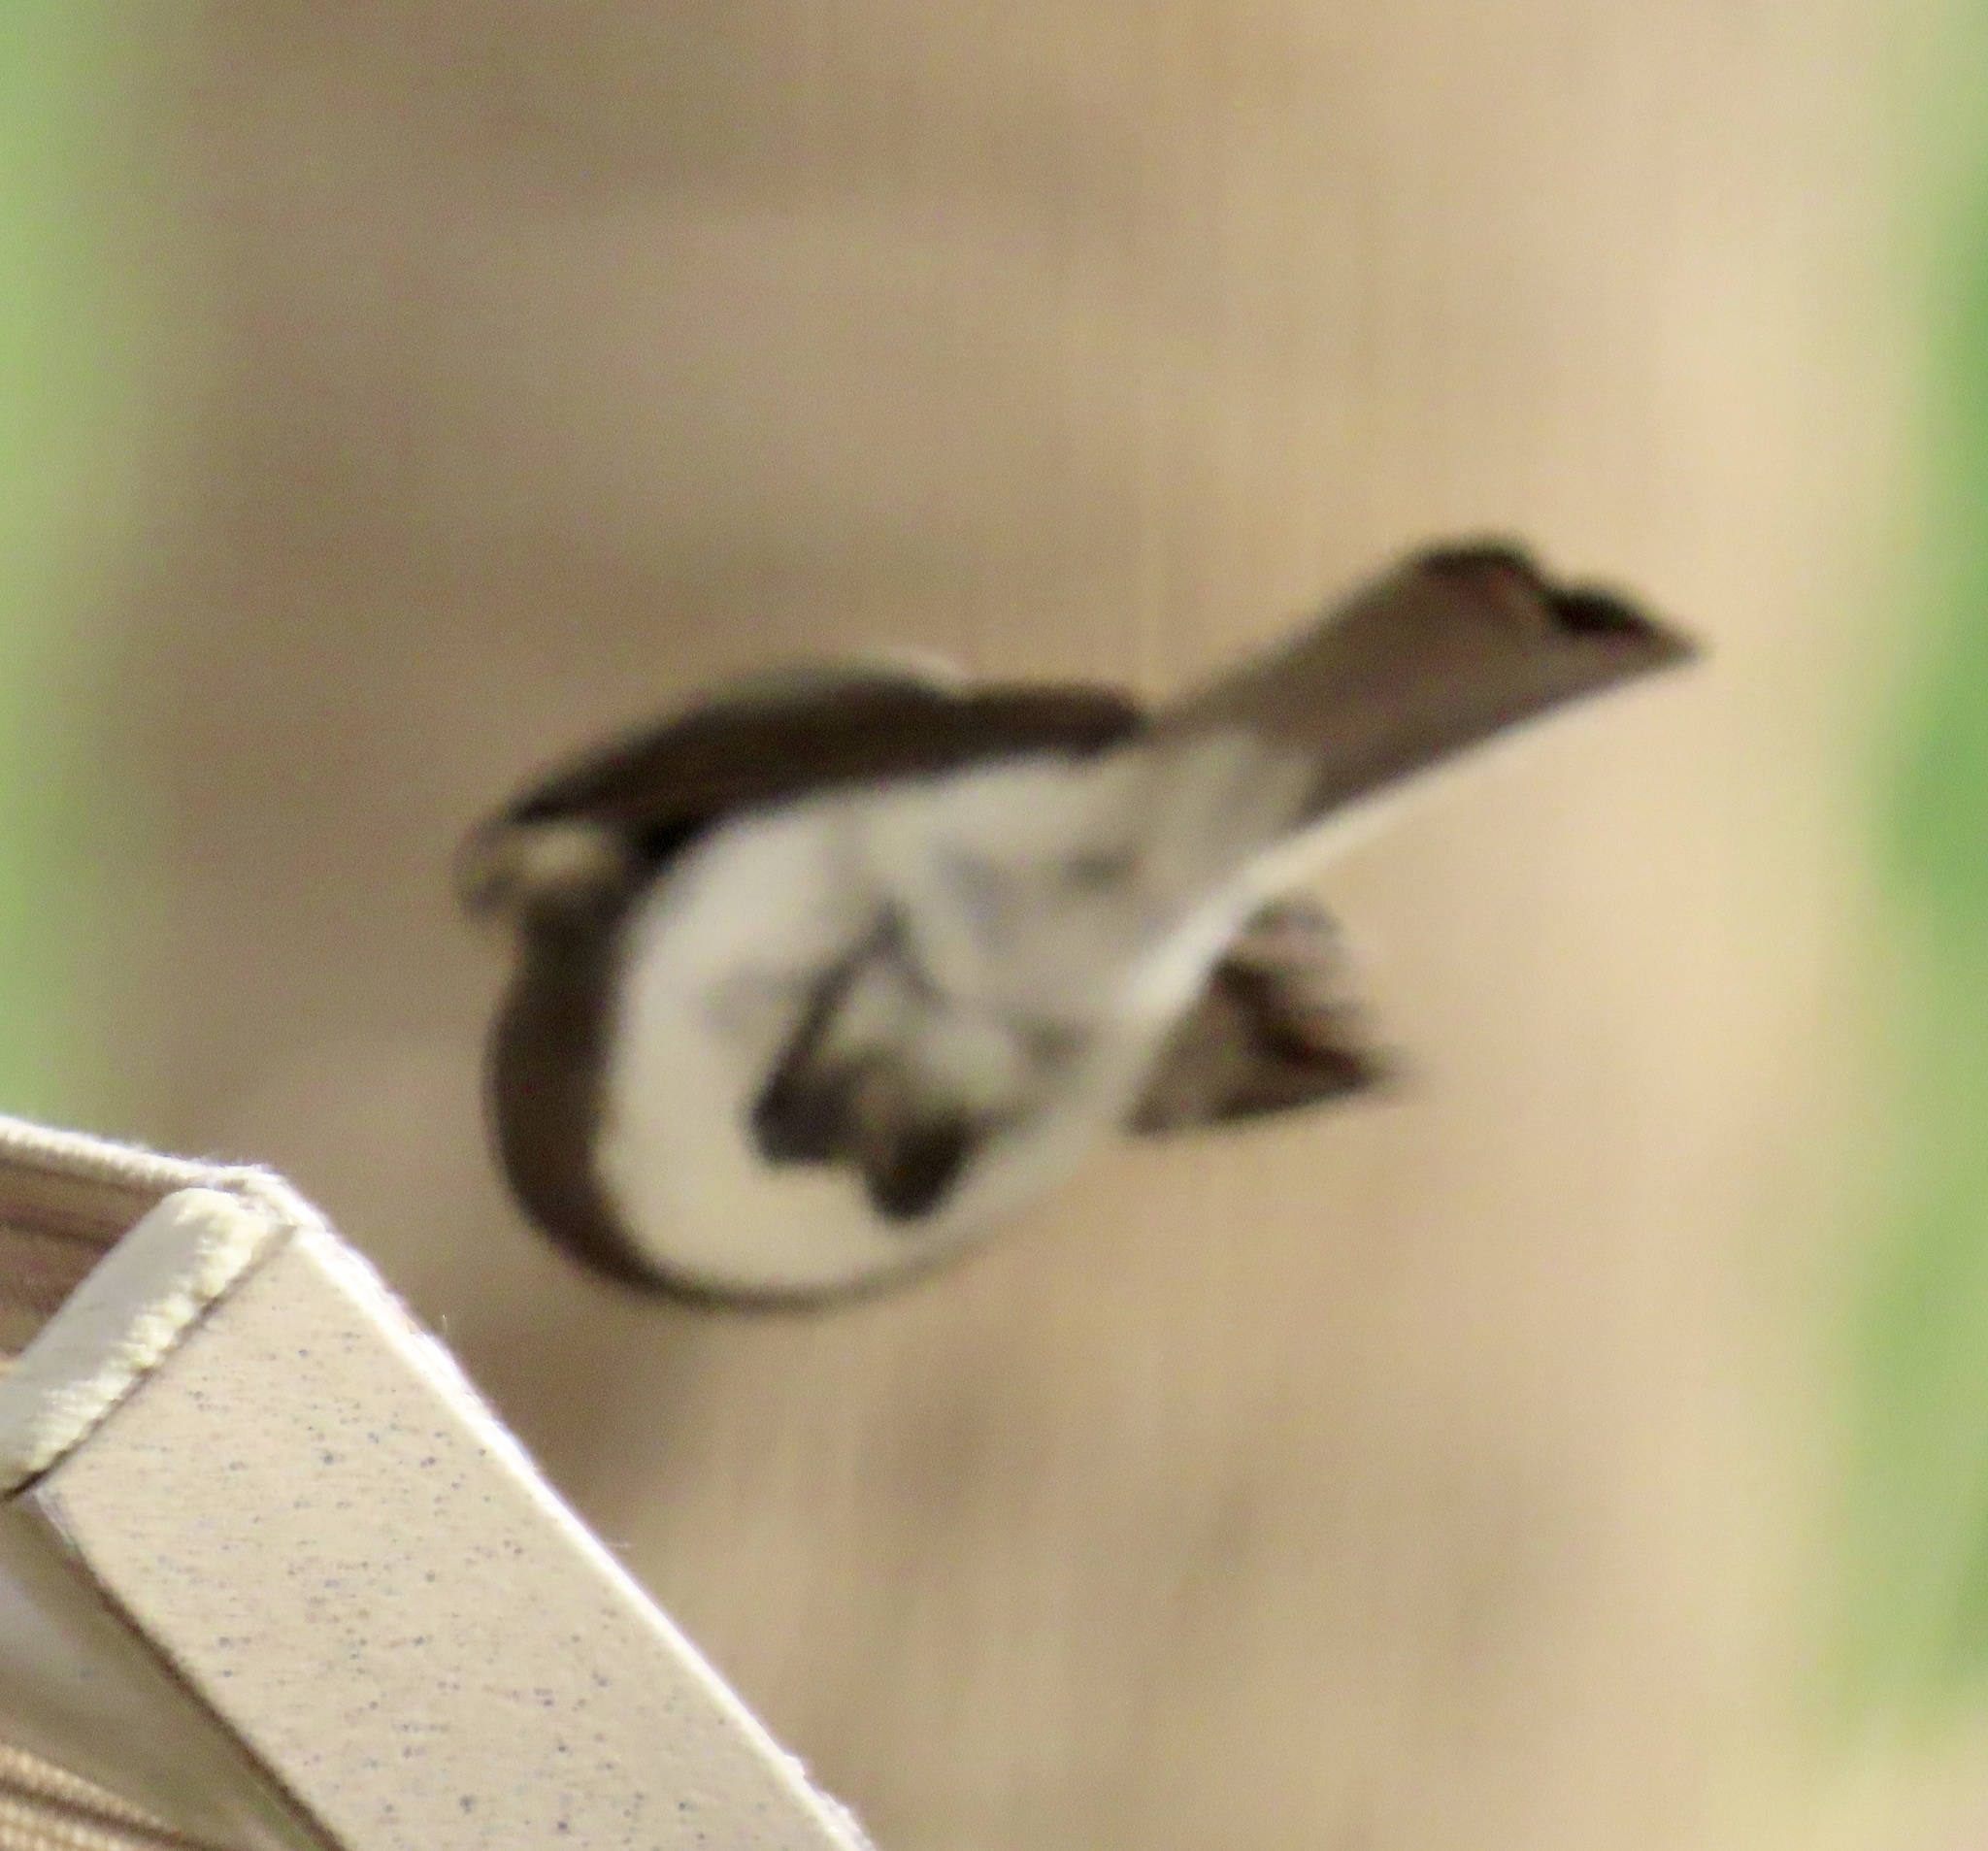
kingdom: Animalia
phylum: Chordata
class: Aves
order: Passeriformes
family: Tyrannidae
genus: Sayornis
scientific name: Sayornis nigricans
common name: Black phoebe
